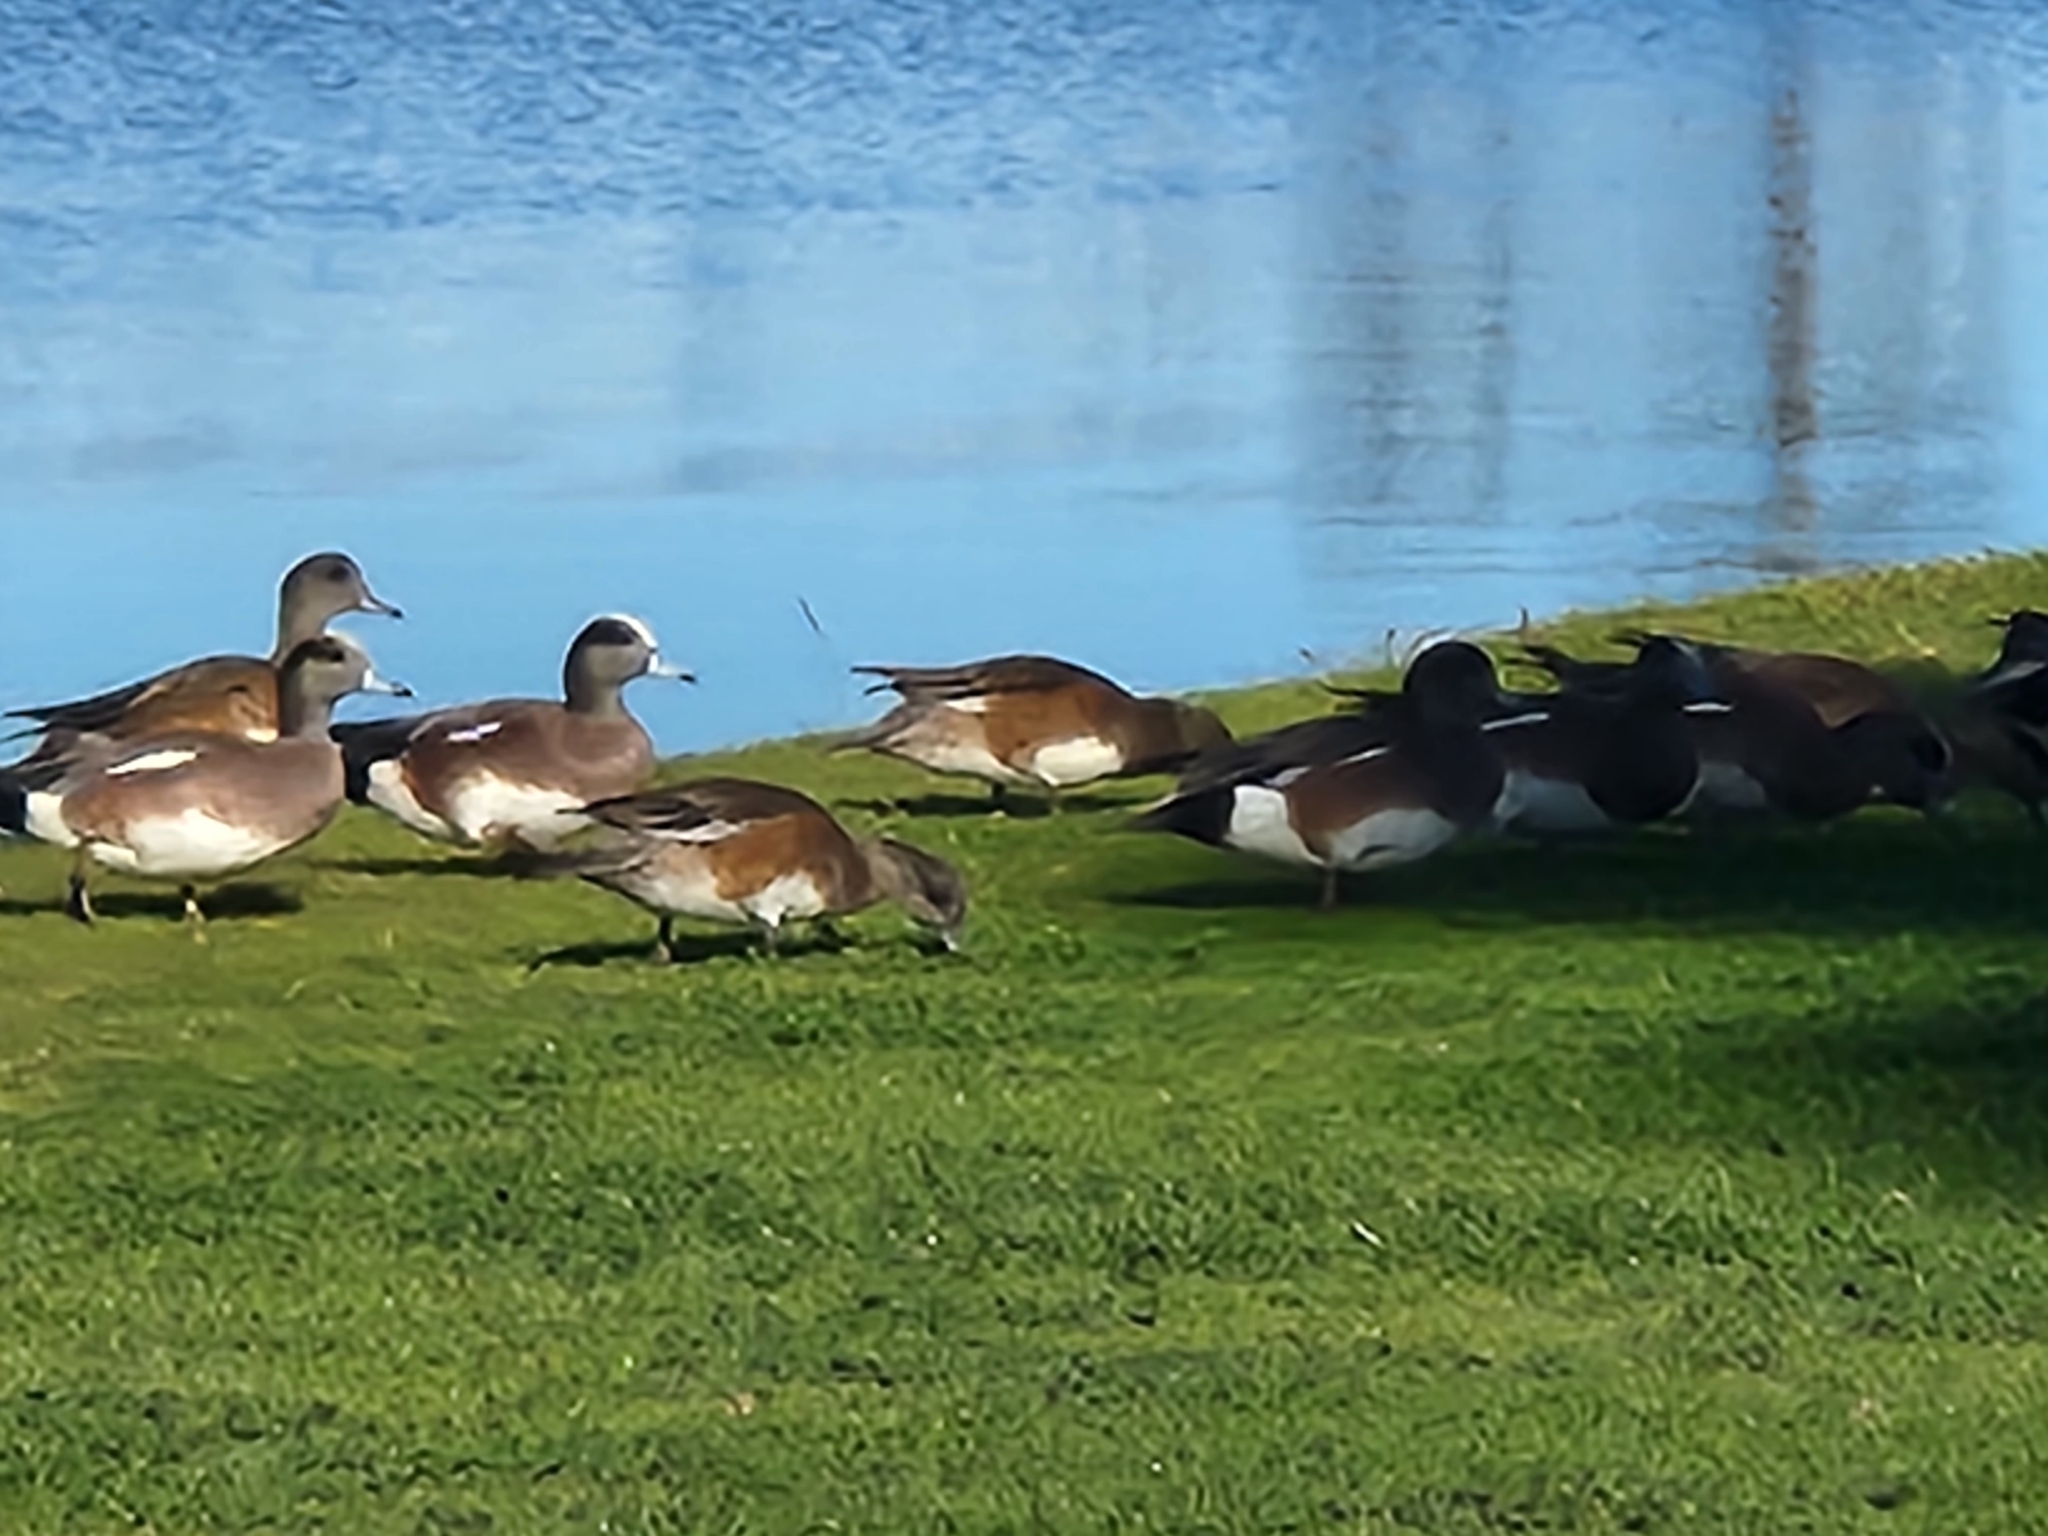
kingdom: Animalia
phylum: Chordata
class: Aves
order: Anseriformes
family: Anatidae
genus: Mareca
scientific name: Mareca americana
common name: American wigeon
